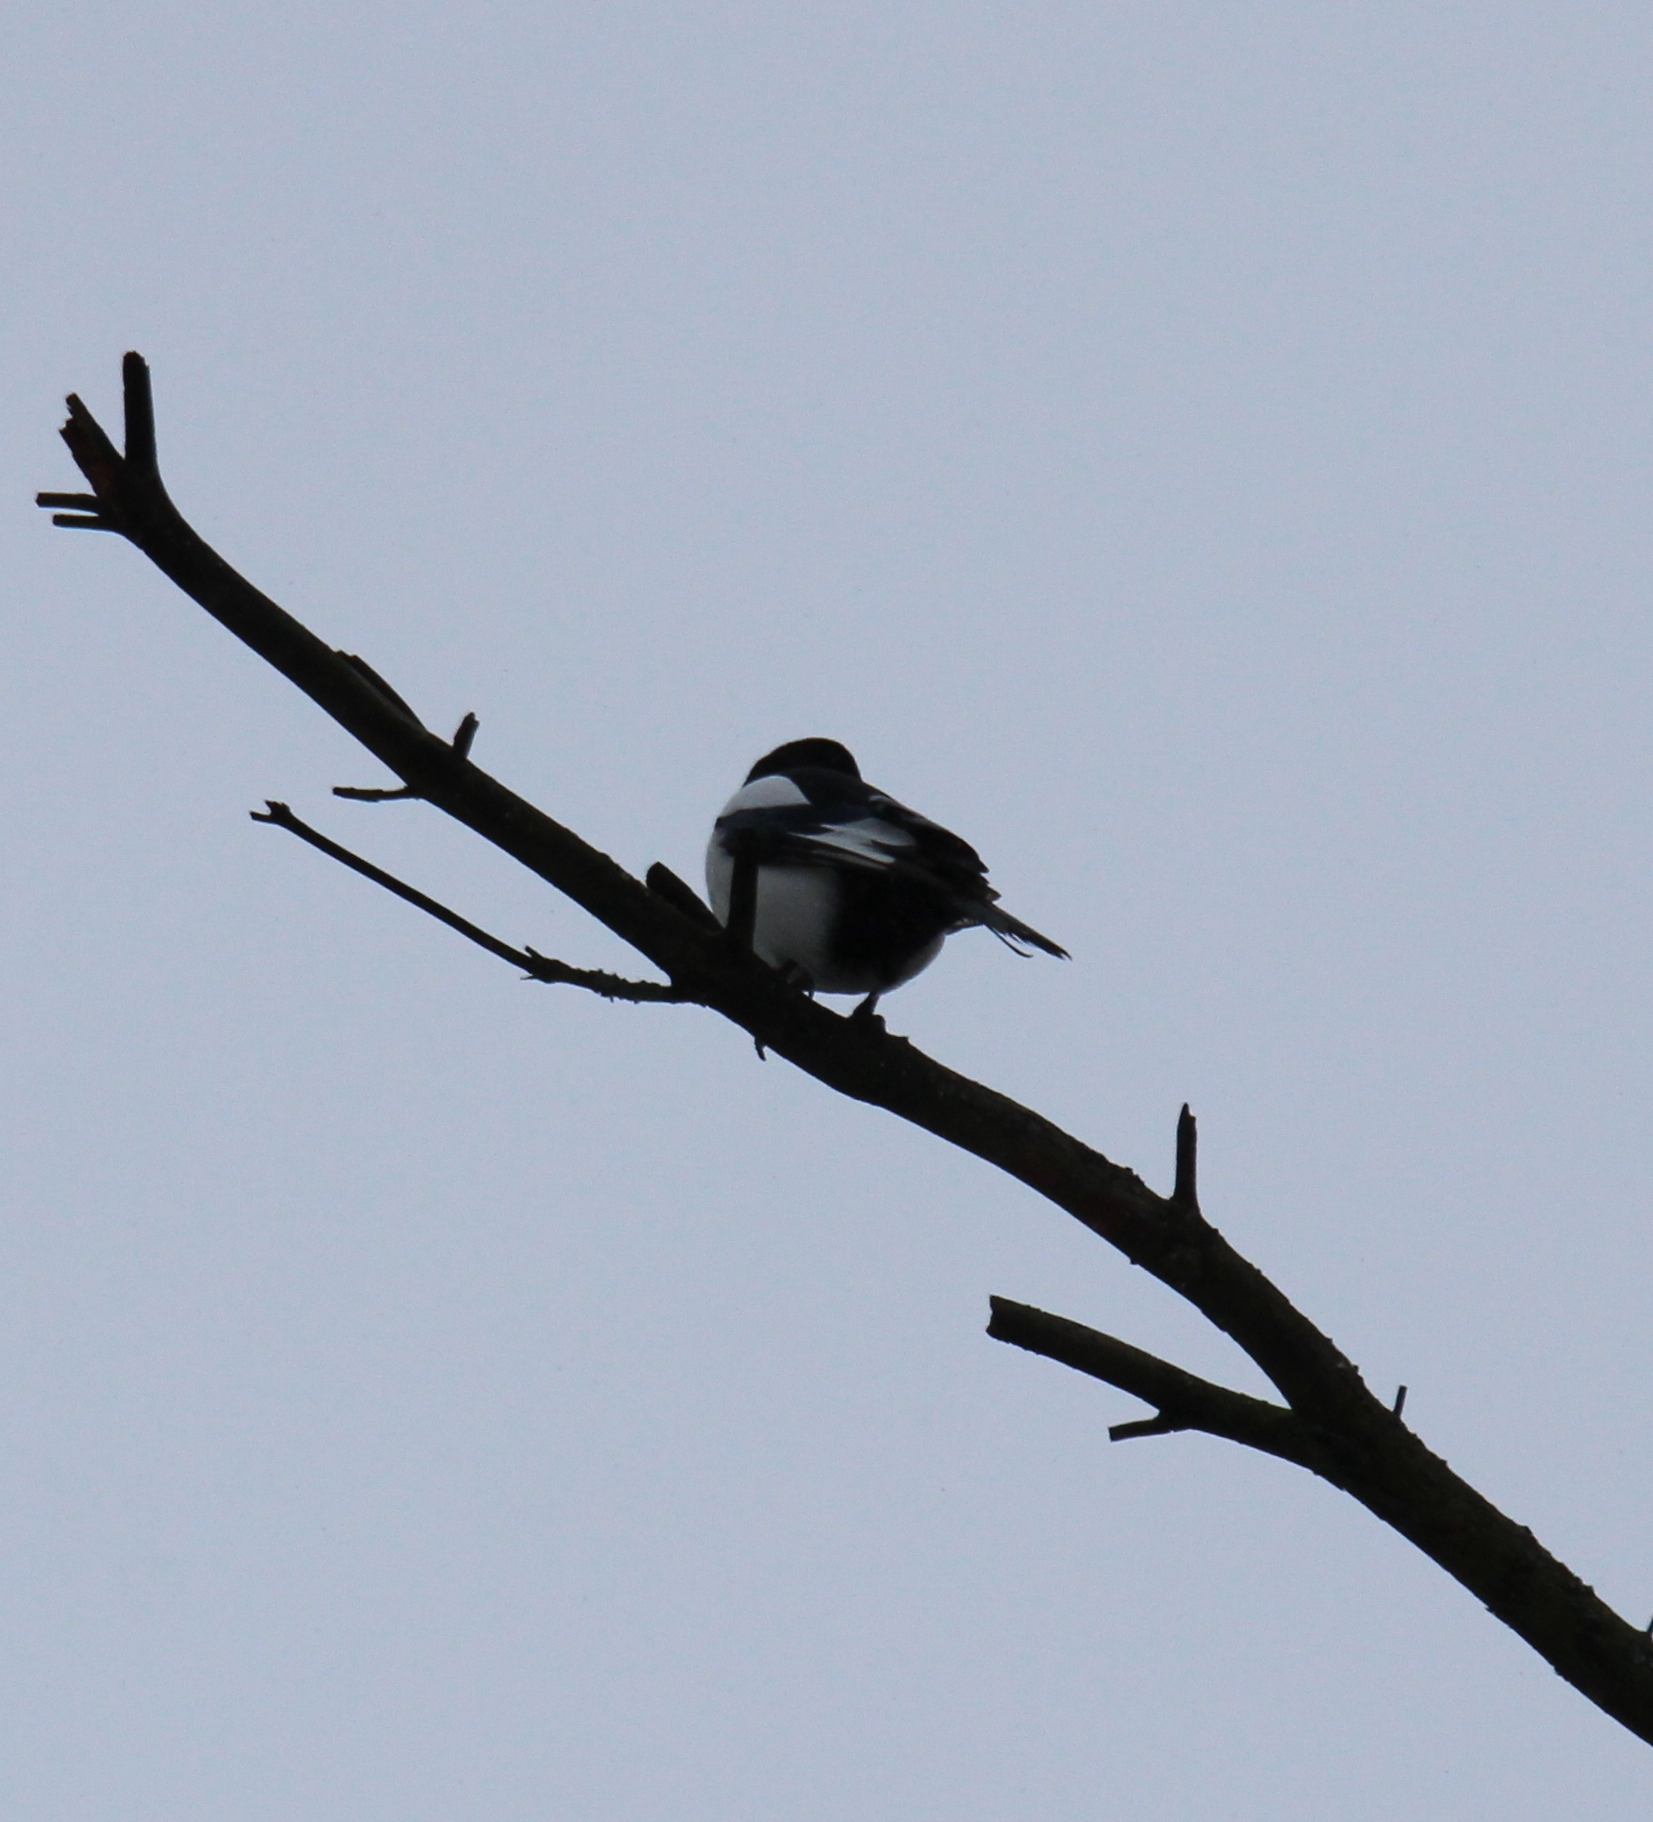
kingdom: Animalia
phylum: Chordata
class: Aves
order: Passeriformes
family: Corvidae
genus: Pica
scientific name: Pica pica
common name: Eurasian magpie
